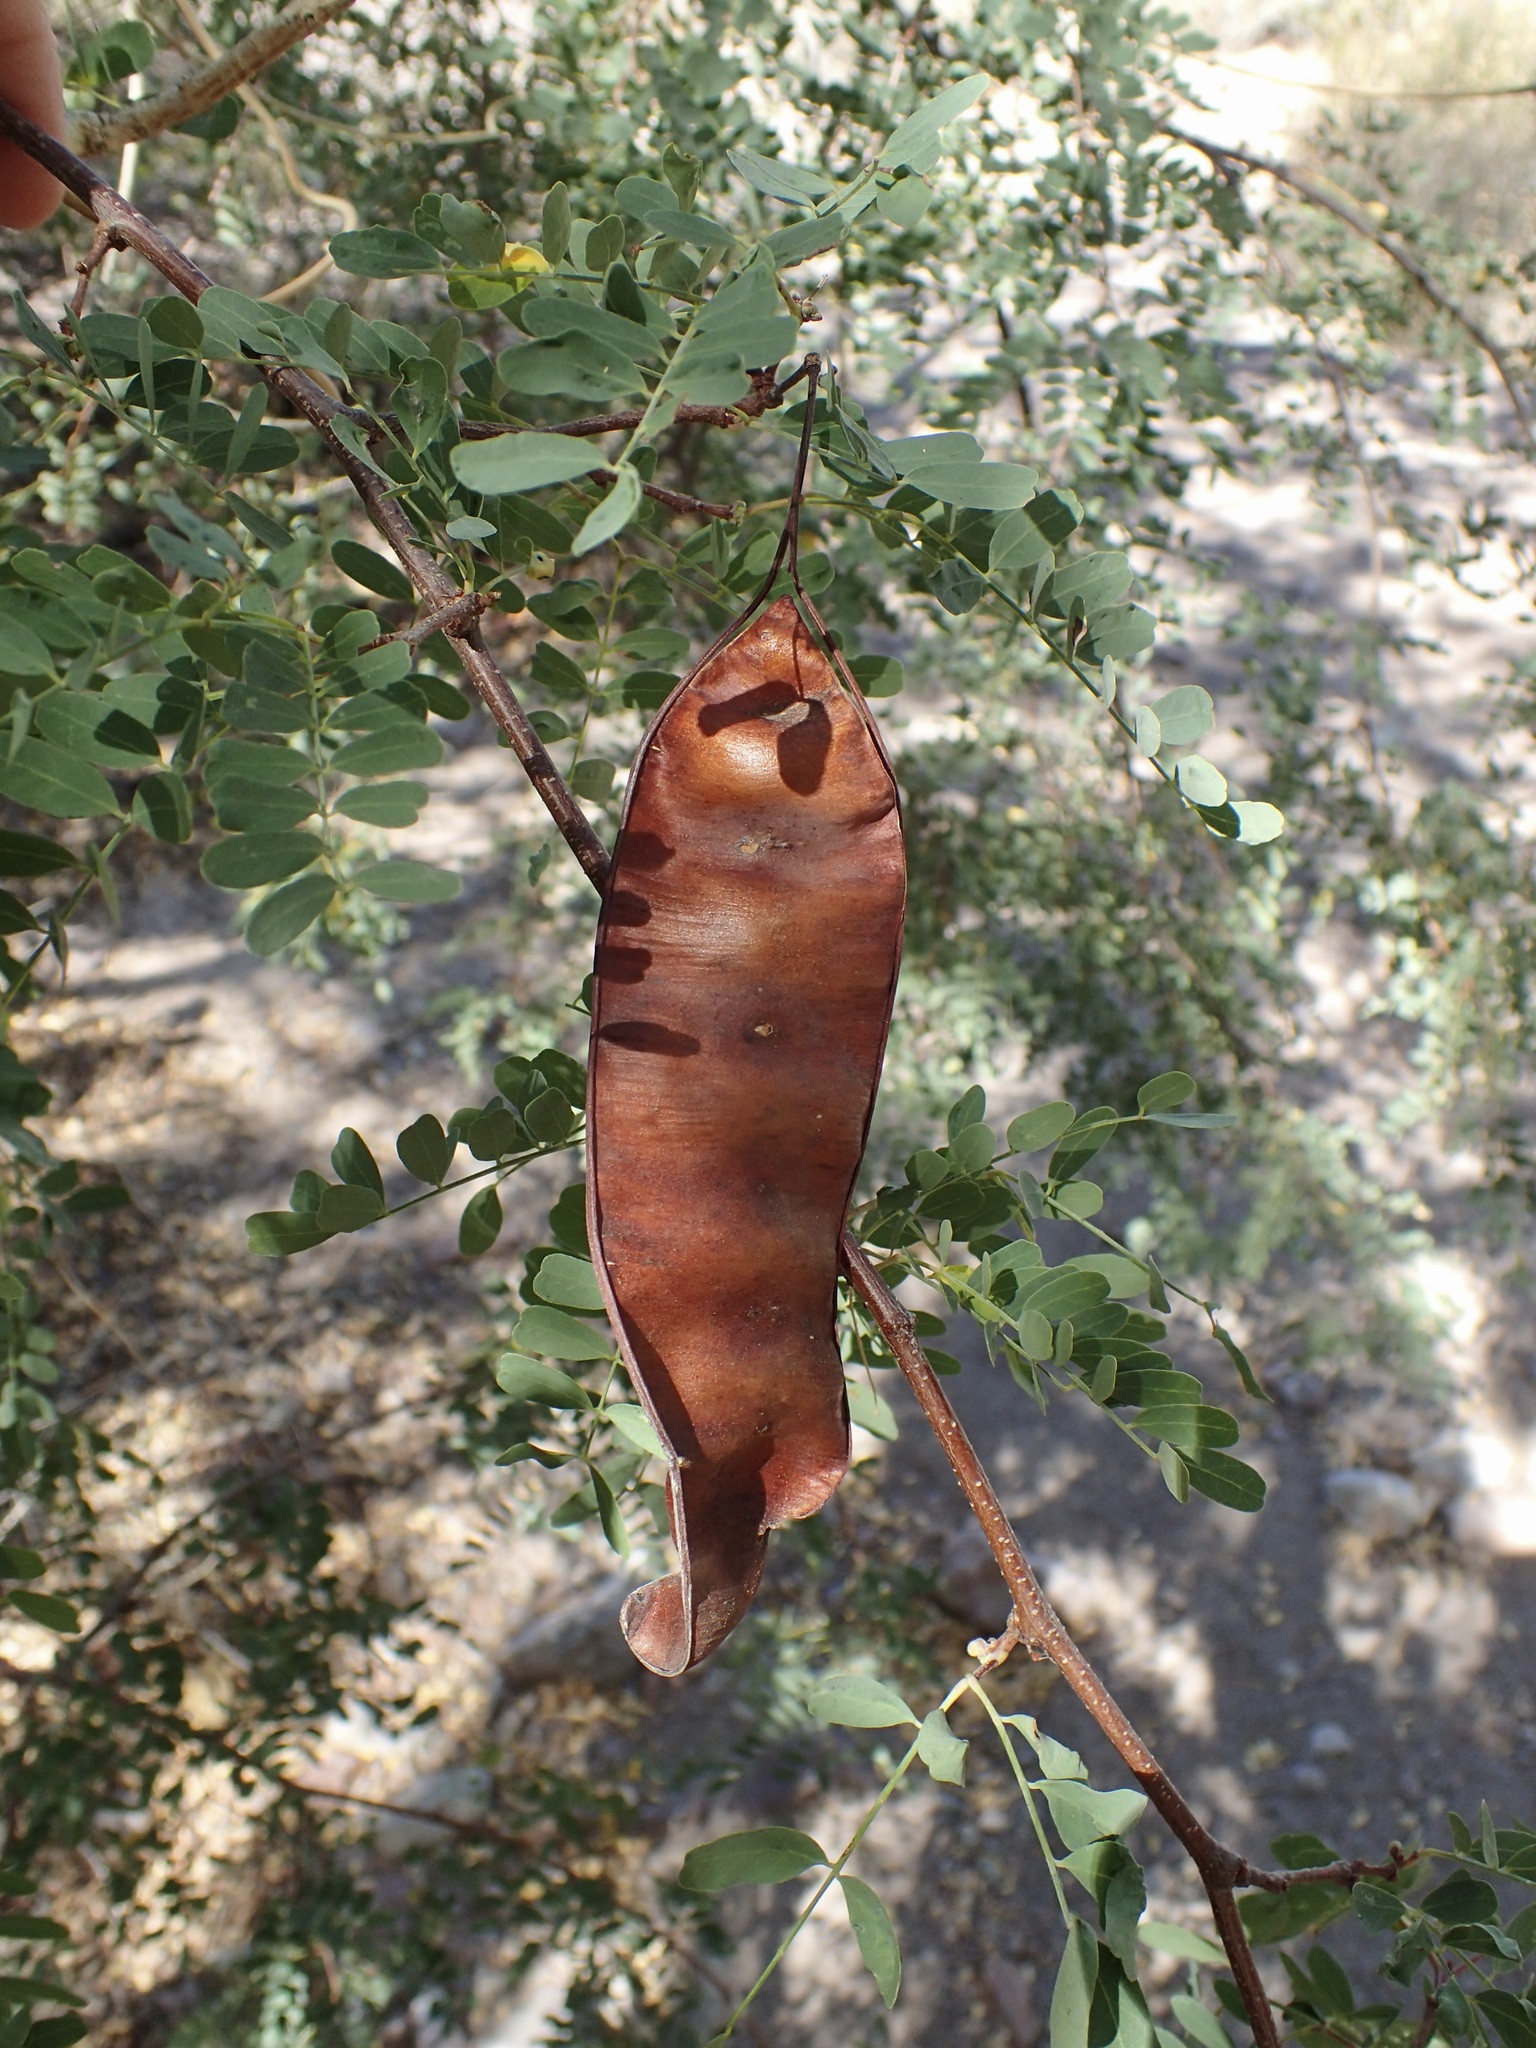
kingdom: Plantae
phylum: Tracheophyta
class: Magnoliopsida
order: Fabales
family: Fabaceae
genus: Lysiloma
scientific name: Lysiloma candidum
